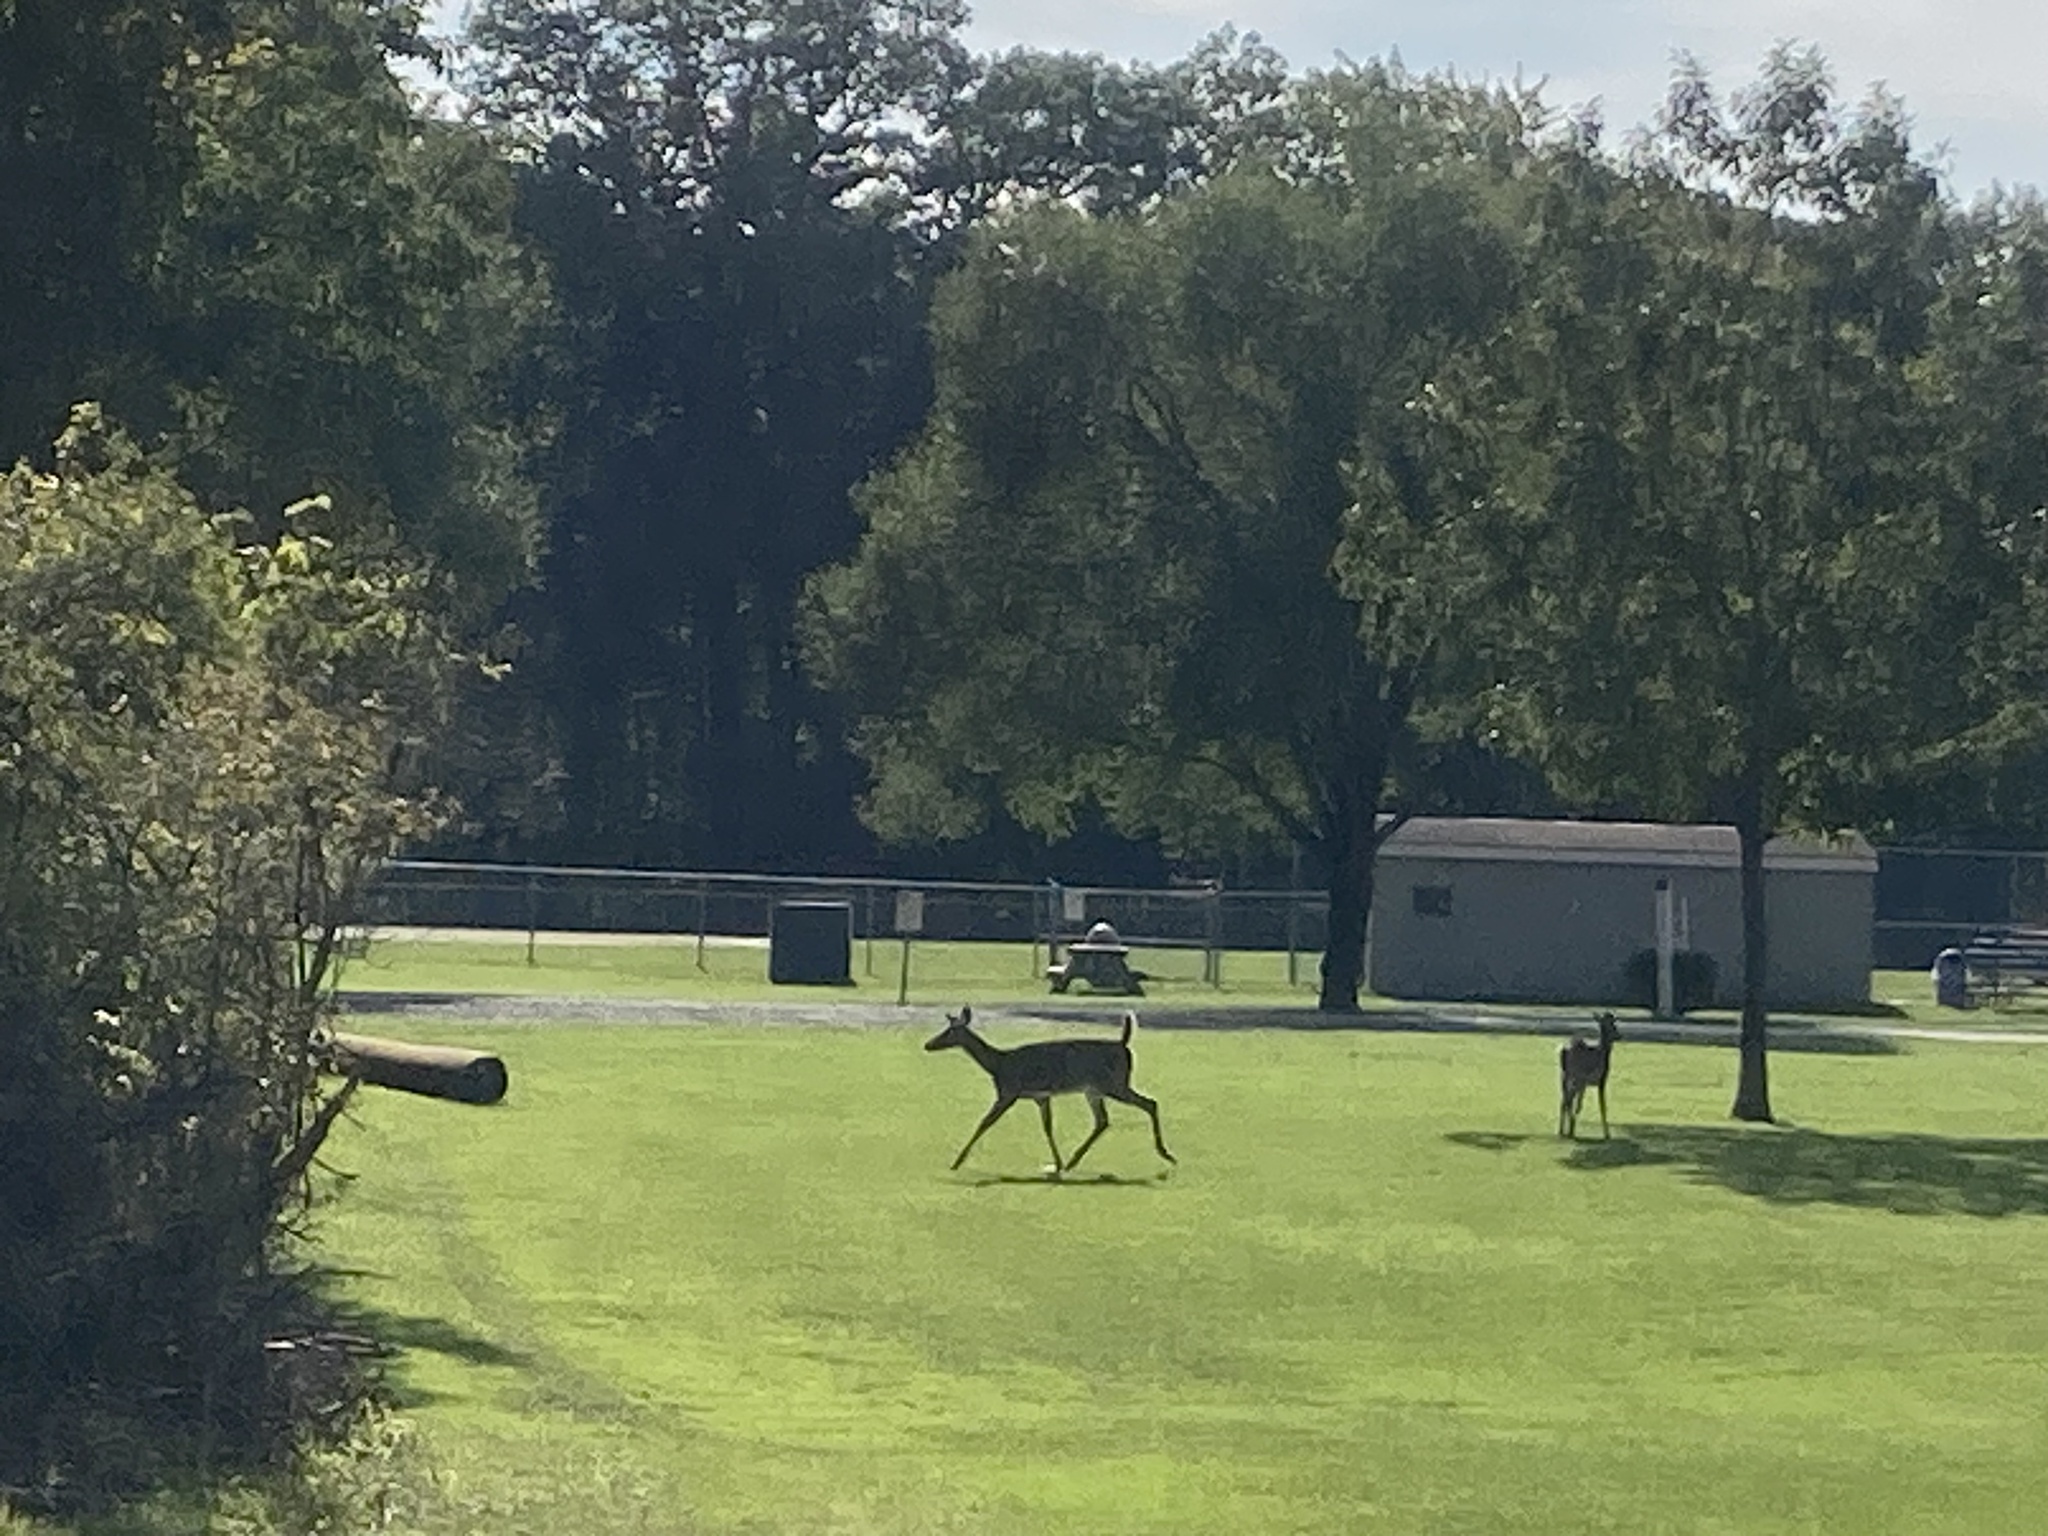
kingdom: Animalia
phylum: Chordata
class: Mammalia
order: Artiodactyla
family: Cervidae
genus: Odocoileus
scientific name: Odocoileus virginianus
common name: White-tailed deer
